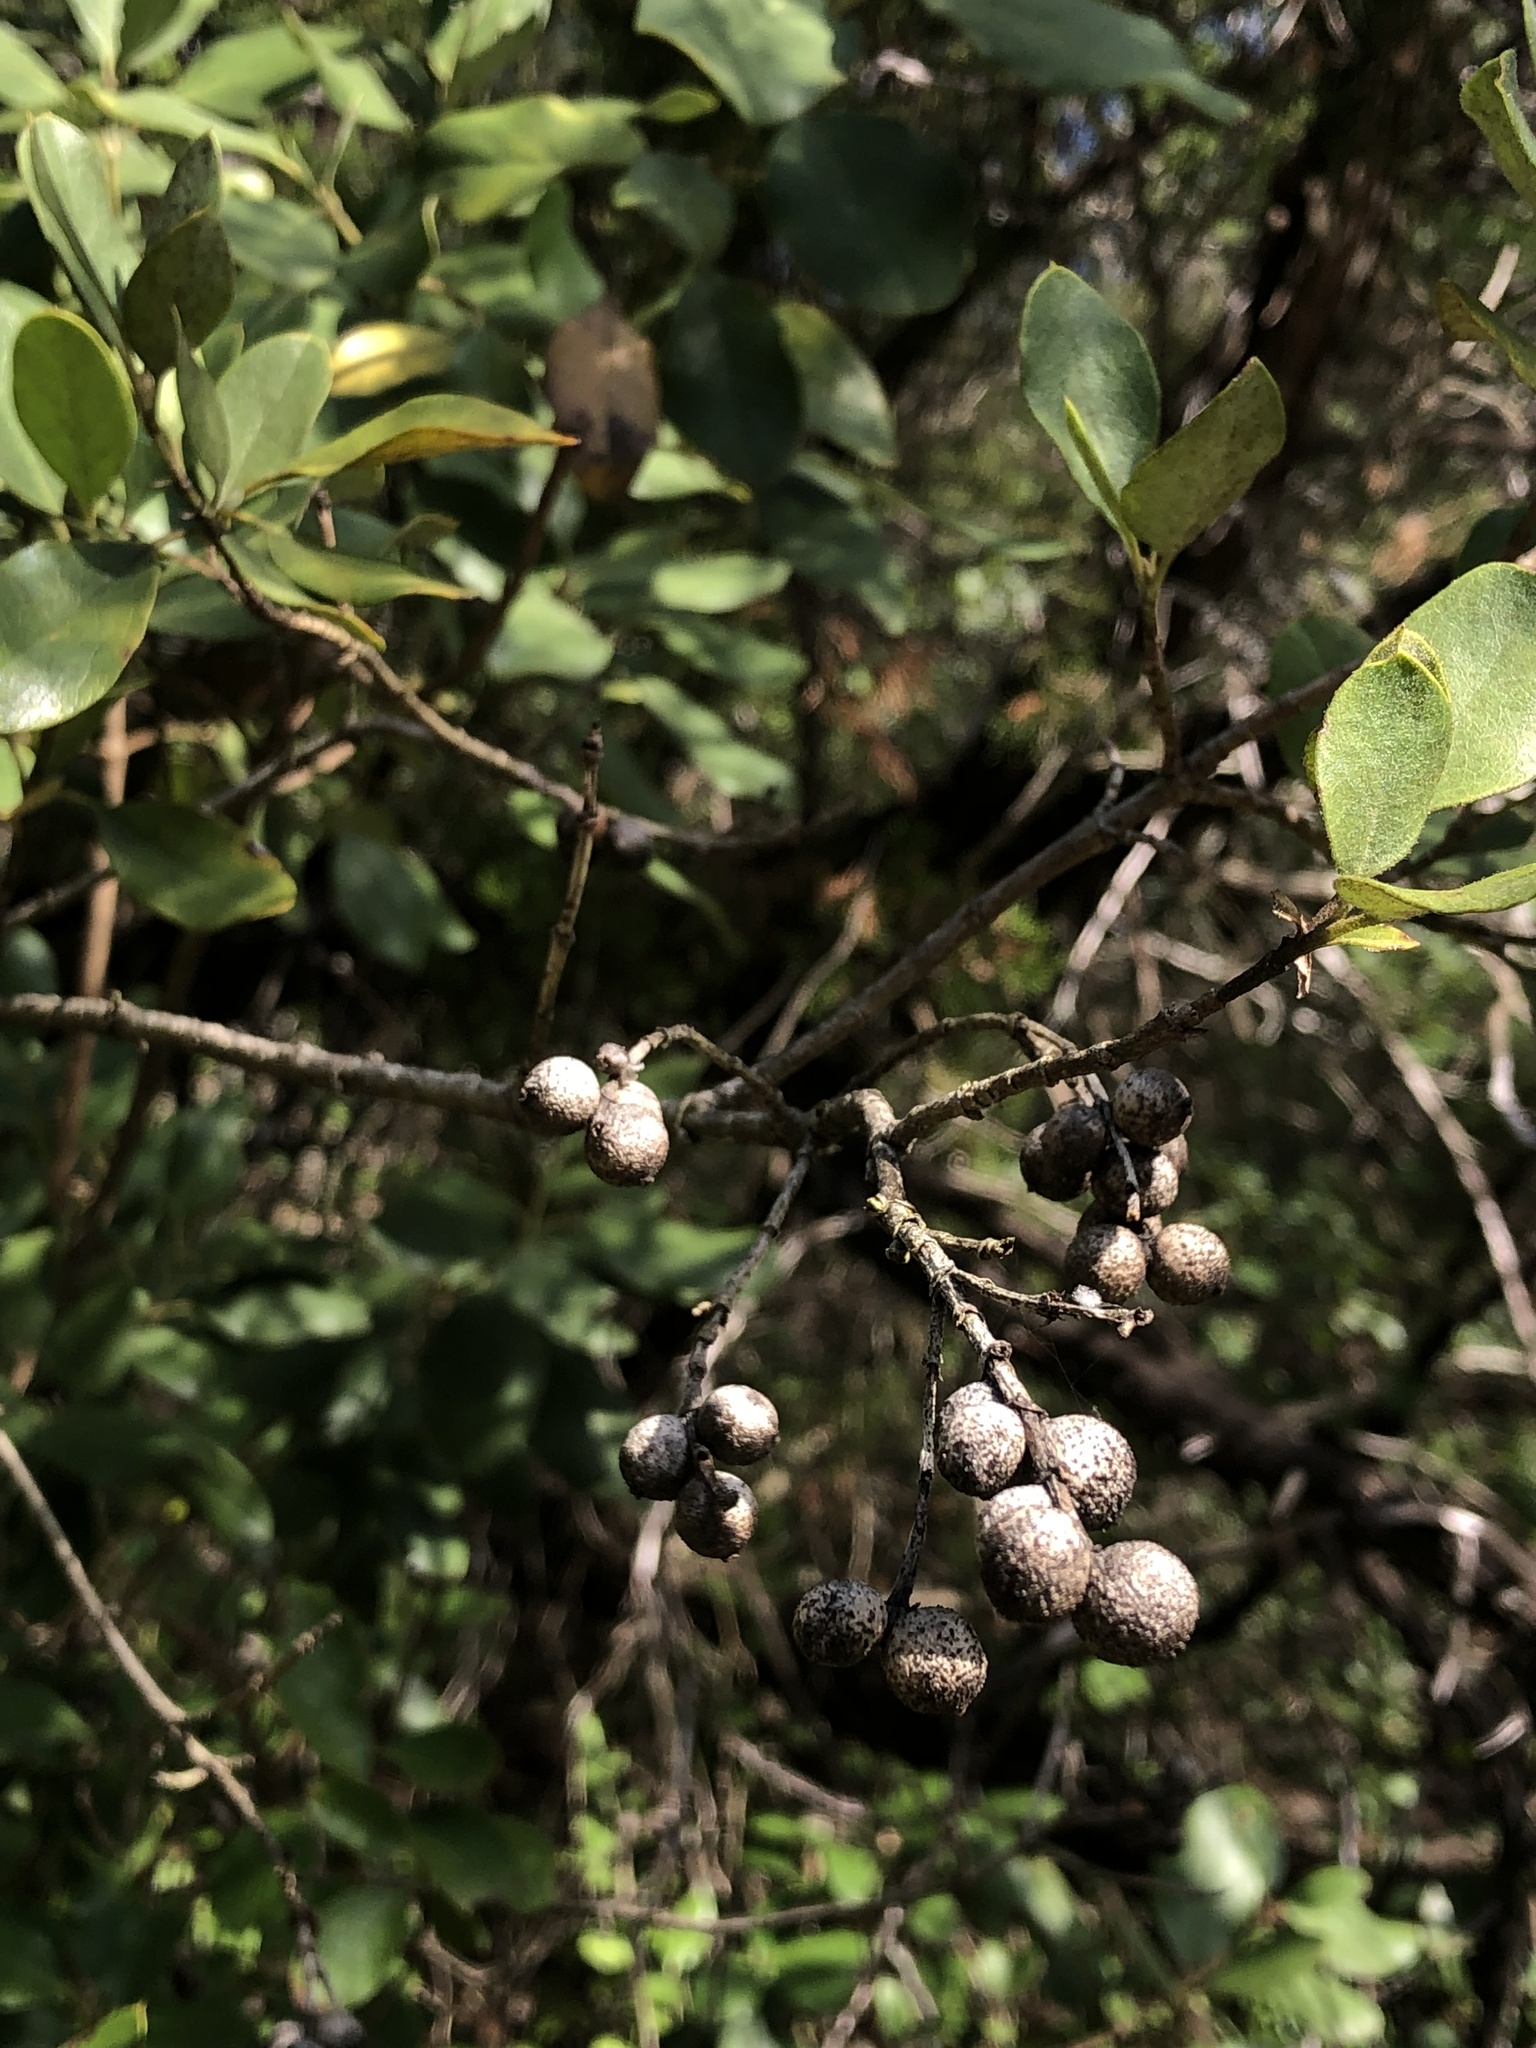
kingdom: Plantae
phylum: Tracheophyta
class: Magnoliopsida
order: Garryales
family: Garryaceae
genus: Garrya
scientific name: Garrya lindheimeri
